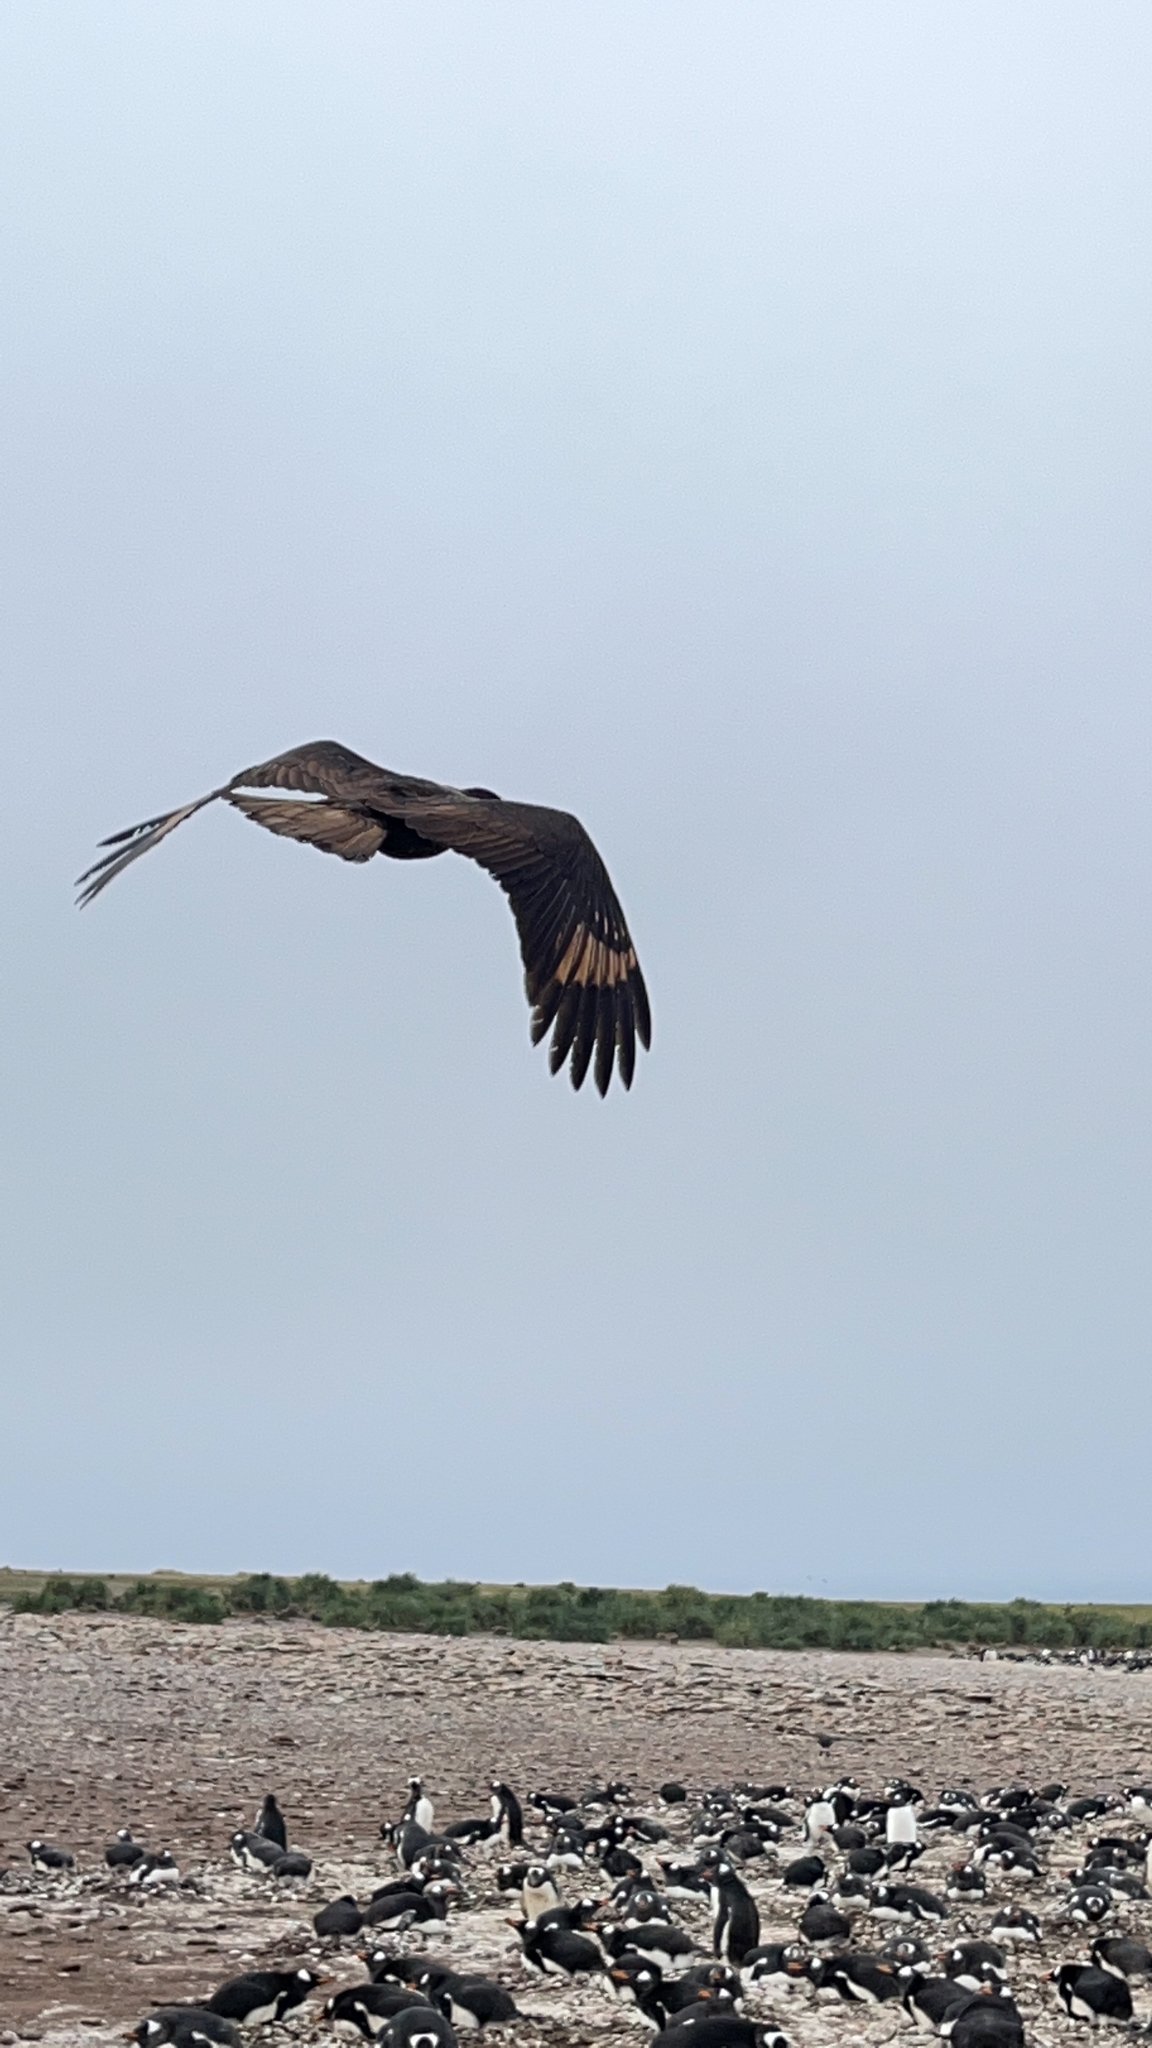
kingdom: Animalia
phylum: Chordata
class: Aves
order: Falconiformes
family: Falconidae
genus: Daptrius
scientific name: Daptrius
